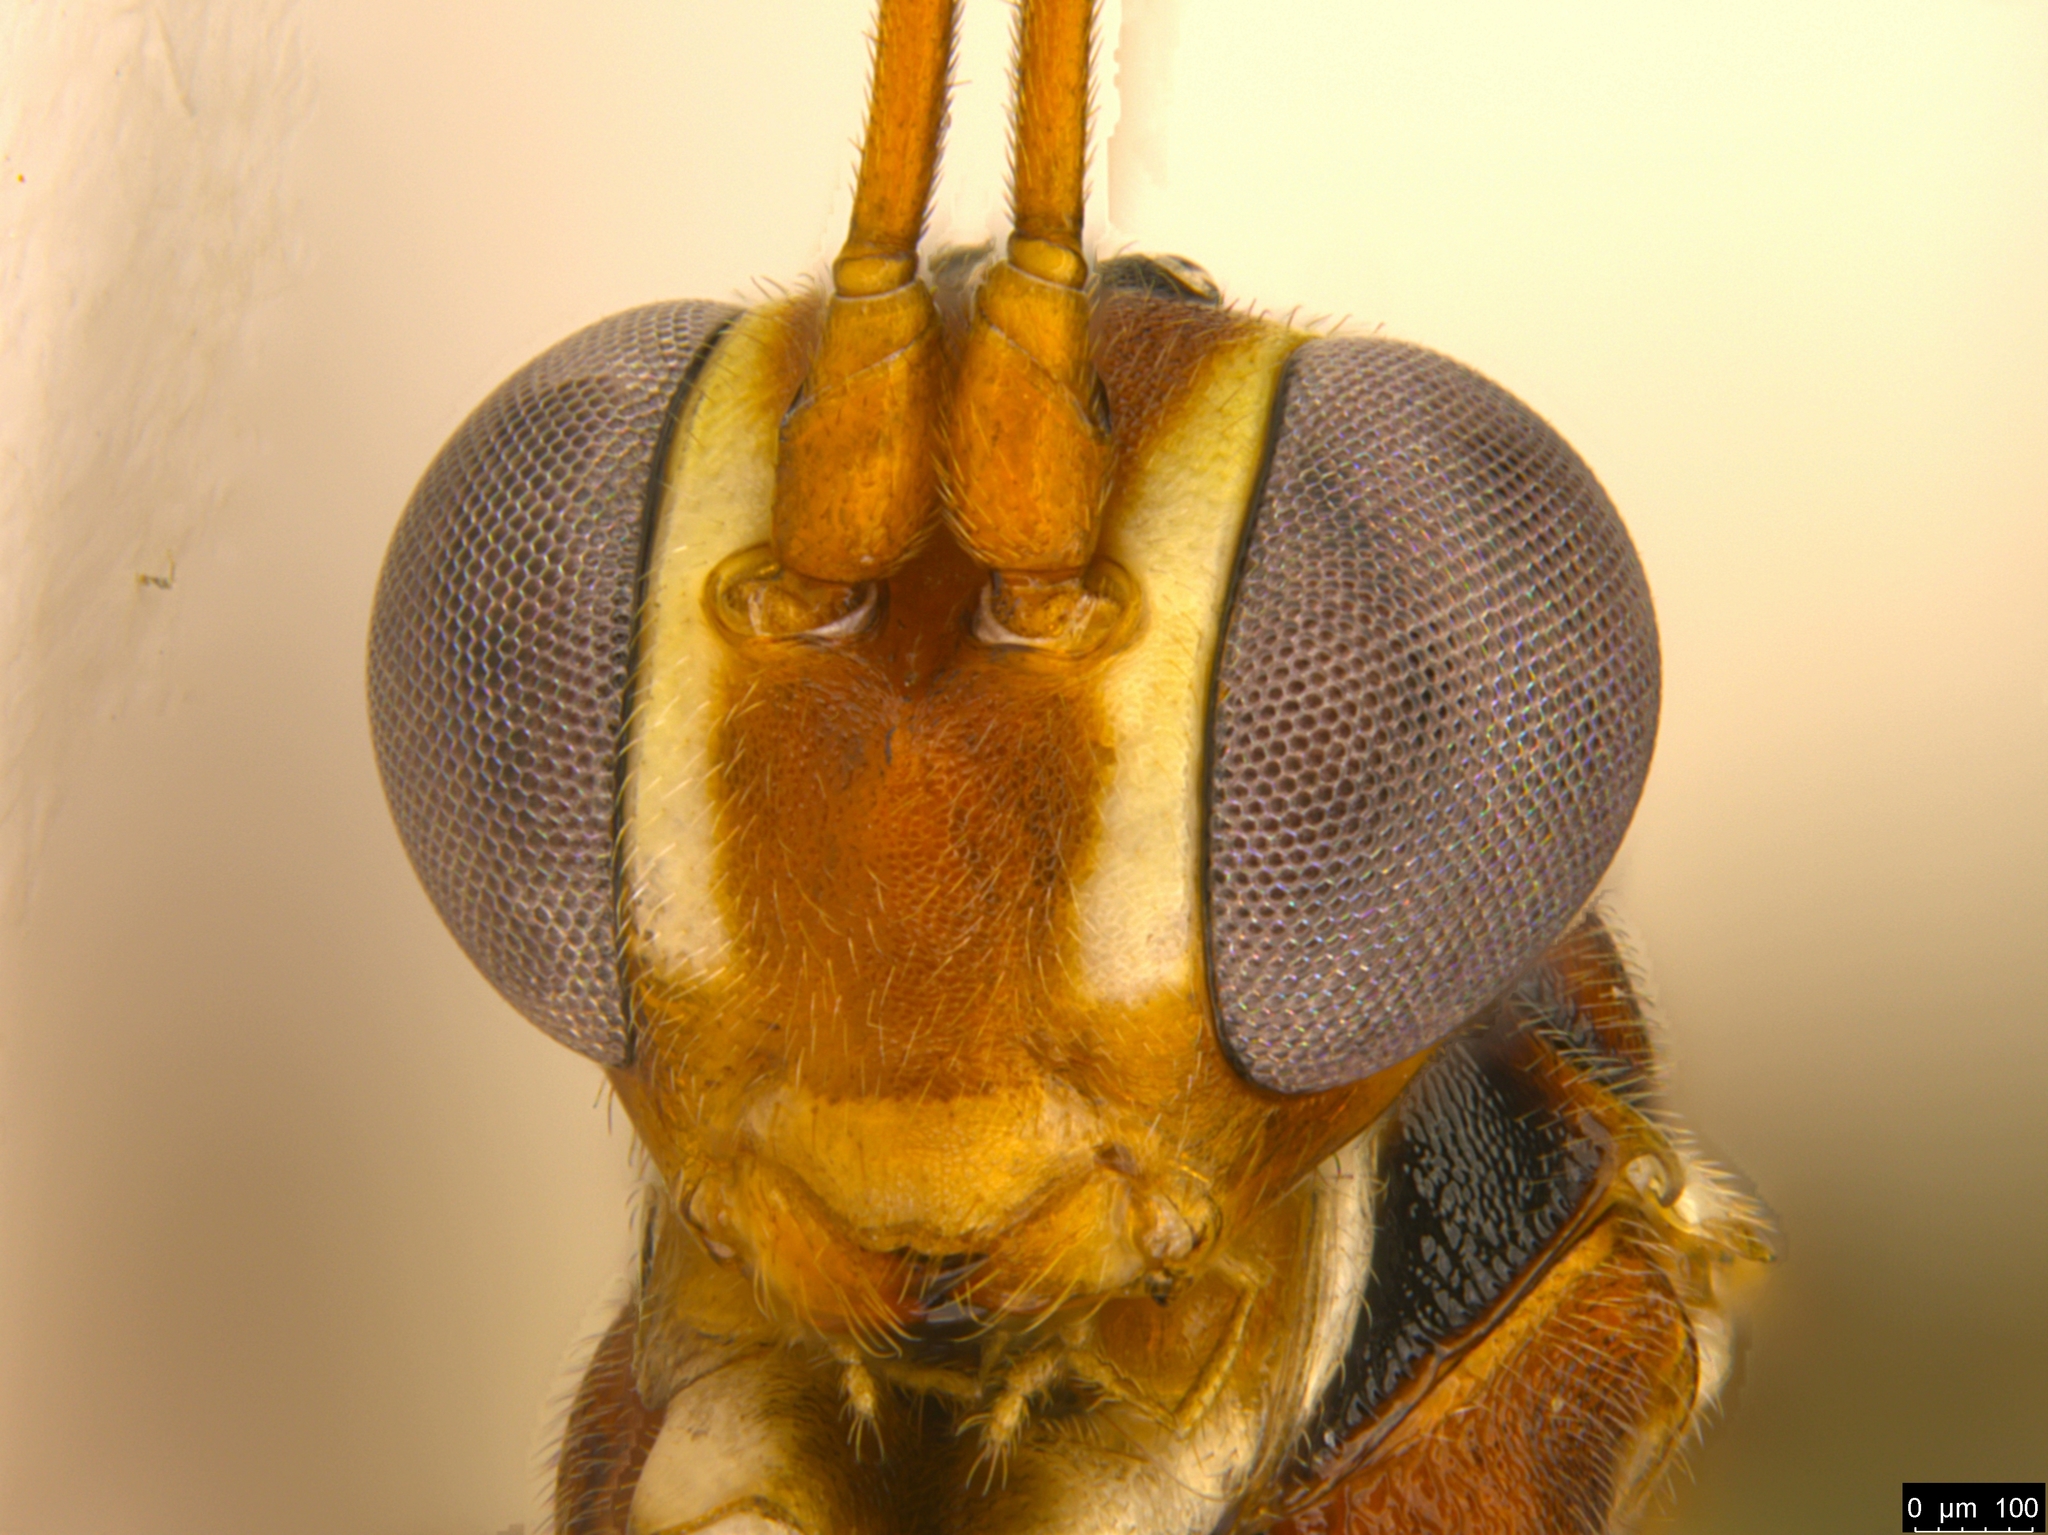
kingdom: Animalia
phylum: Arthropoda
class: Insecta
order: Hymenoptera
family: Ichneumonidae
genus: Australoglypta
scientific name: Australoglypta
